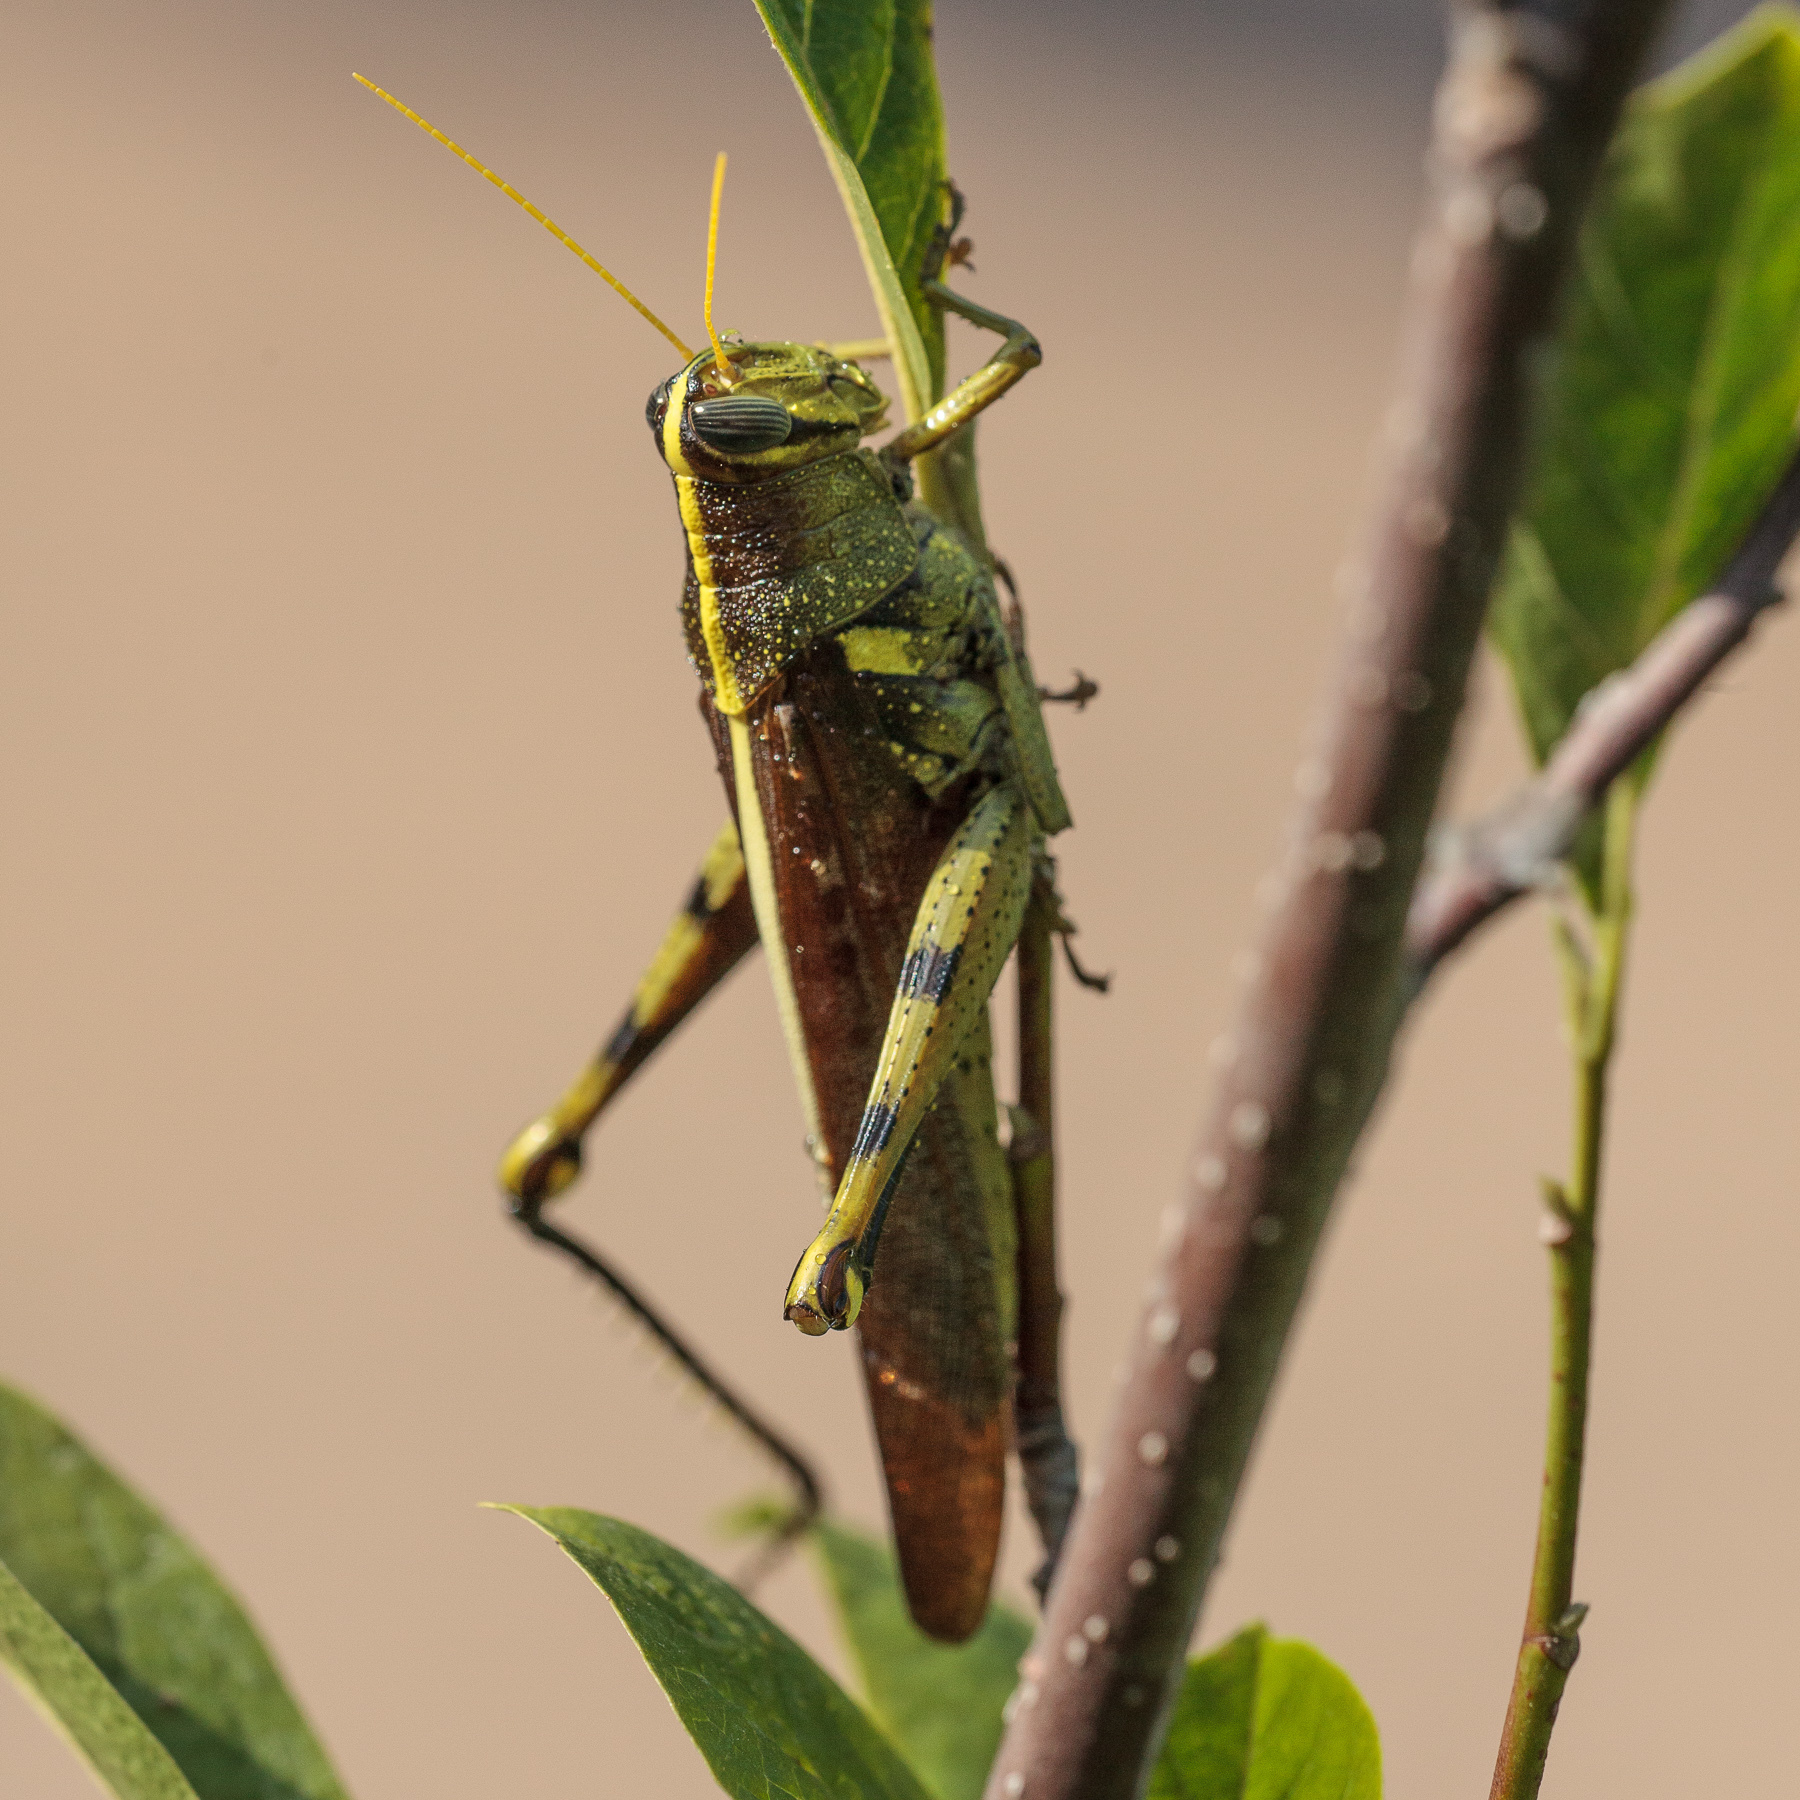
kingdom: Animalia
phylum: Arthropoda
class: Insecta
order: Orthoptera
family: Acrididae
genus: Schistocerca
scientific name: Schistocerca obscura
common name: Obscure bird grasshopper
